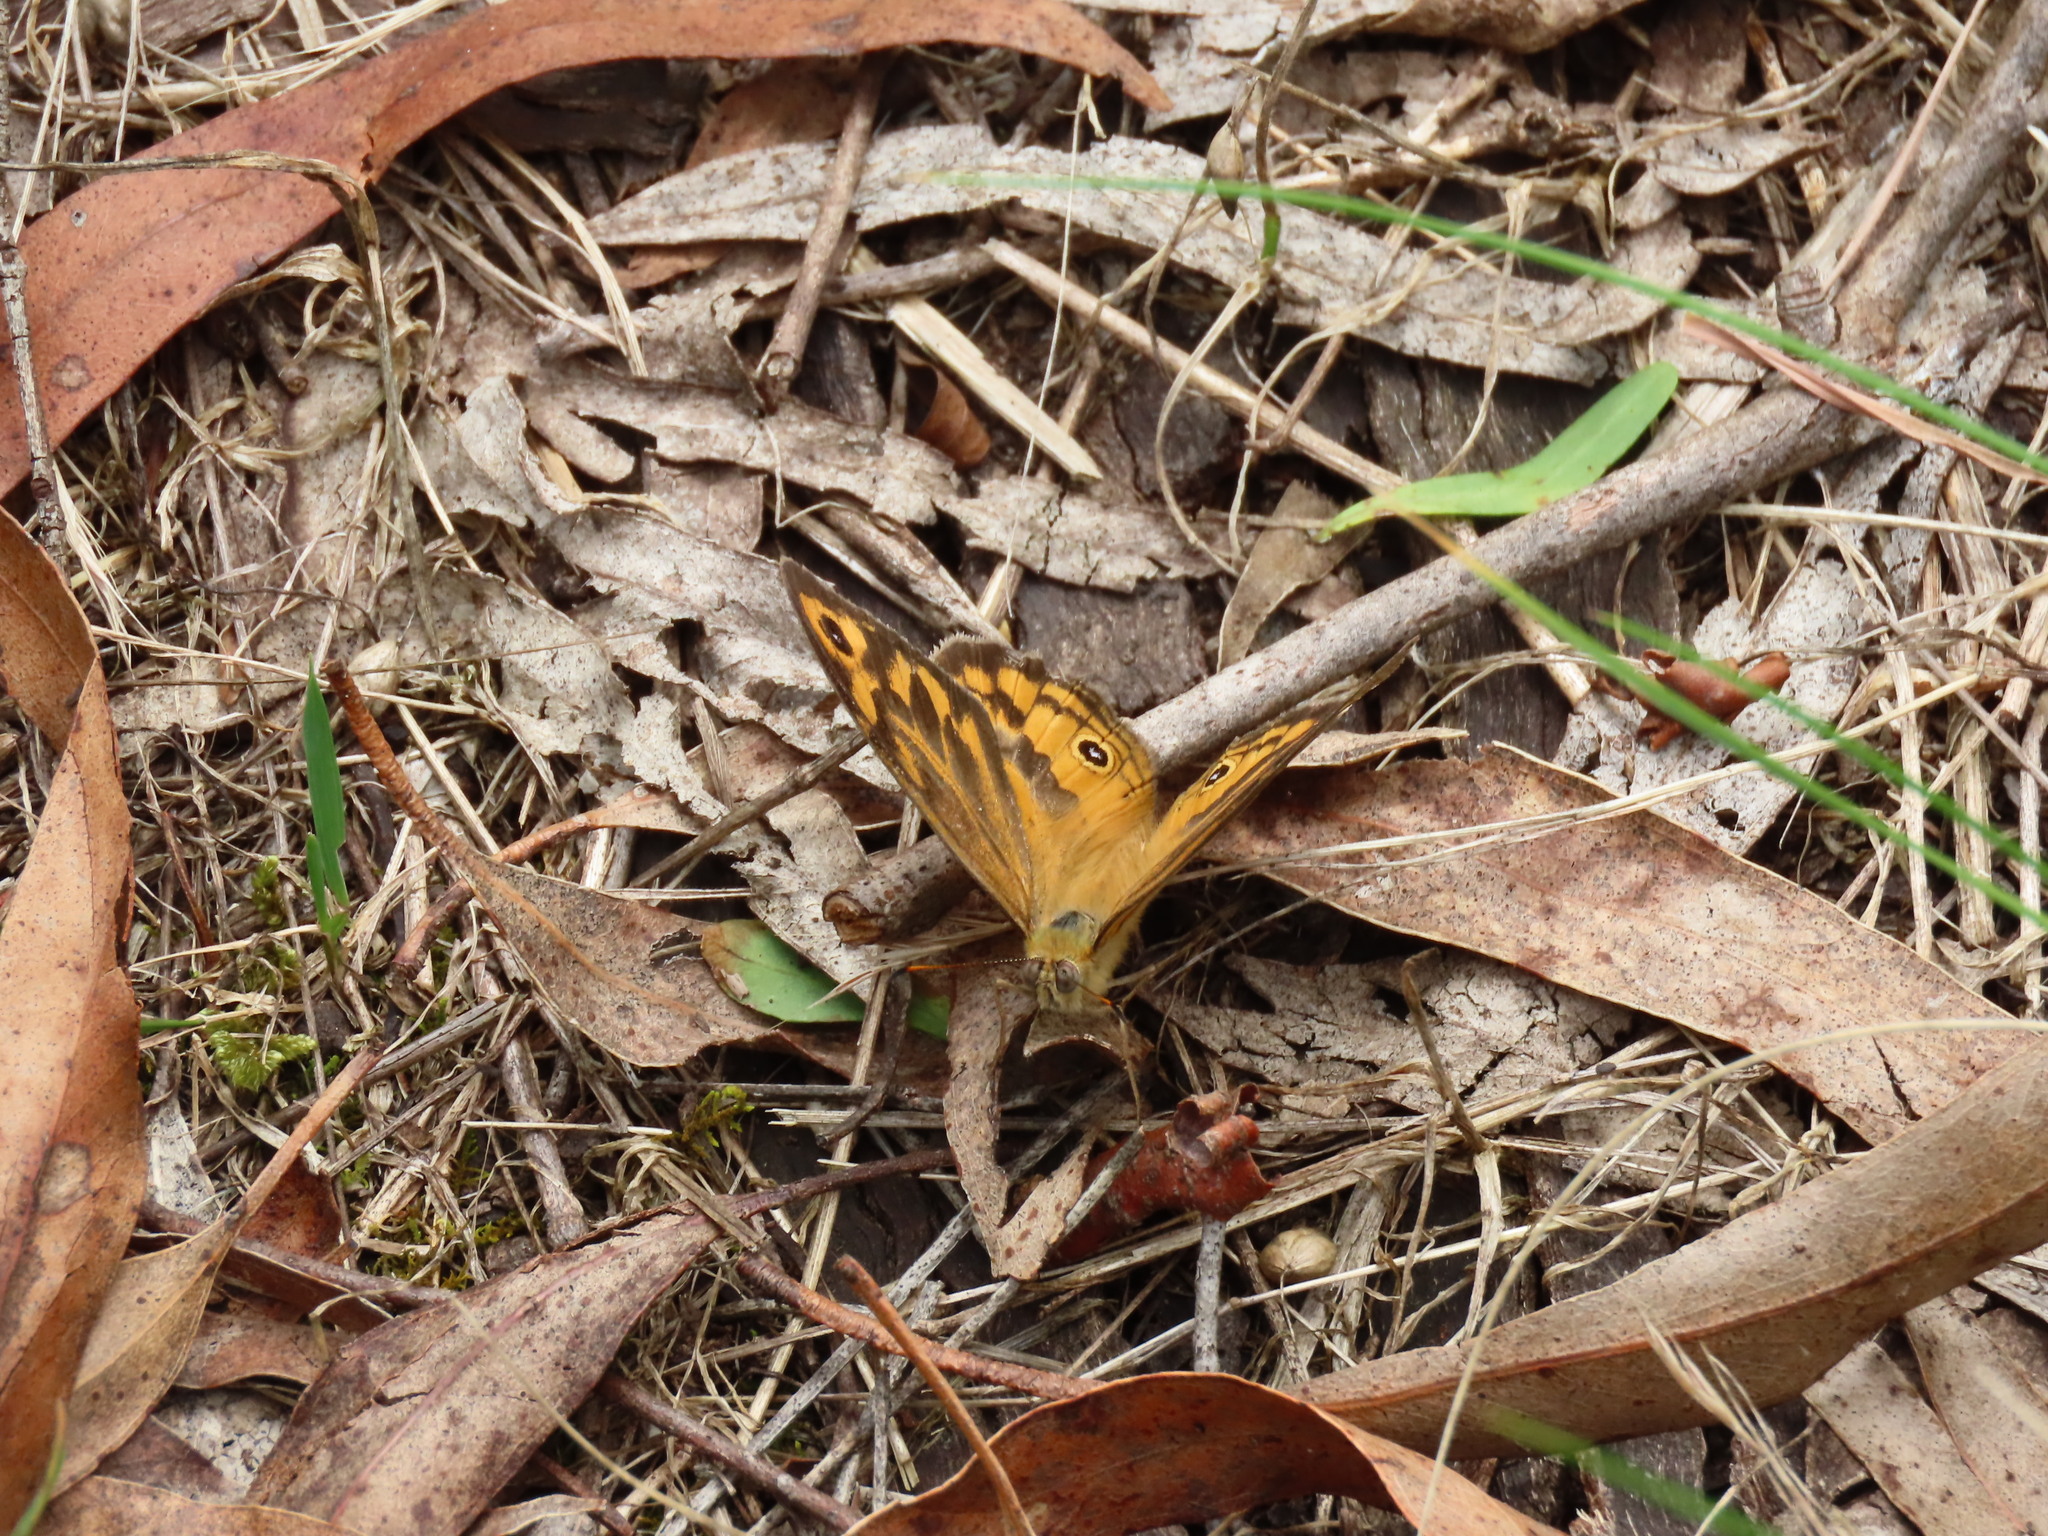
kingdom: Animalia
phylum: Arthropoda
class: Insecta
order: Lepidoptera
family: Nymphalidae
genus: Heteronympha
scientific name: Heteronympha merope
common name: Common brown
